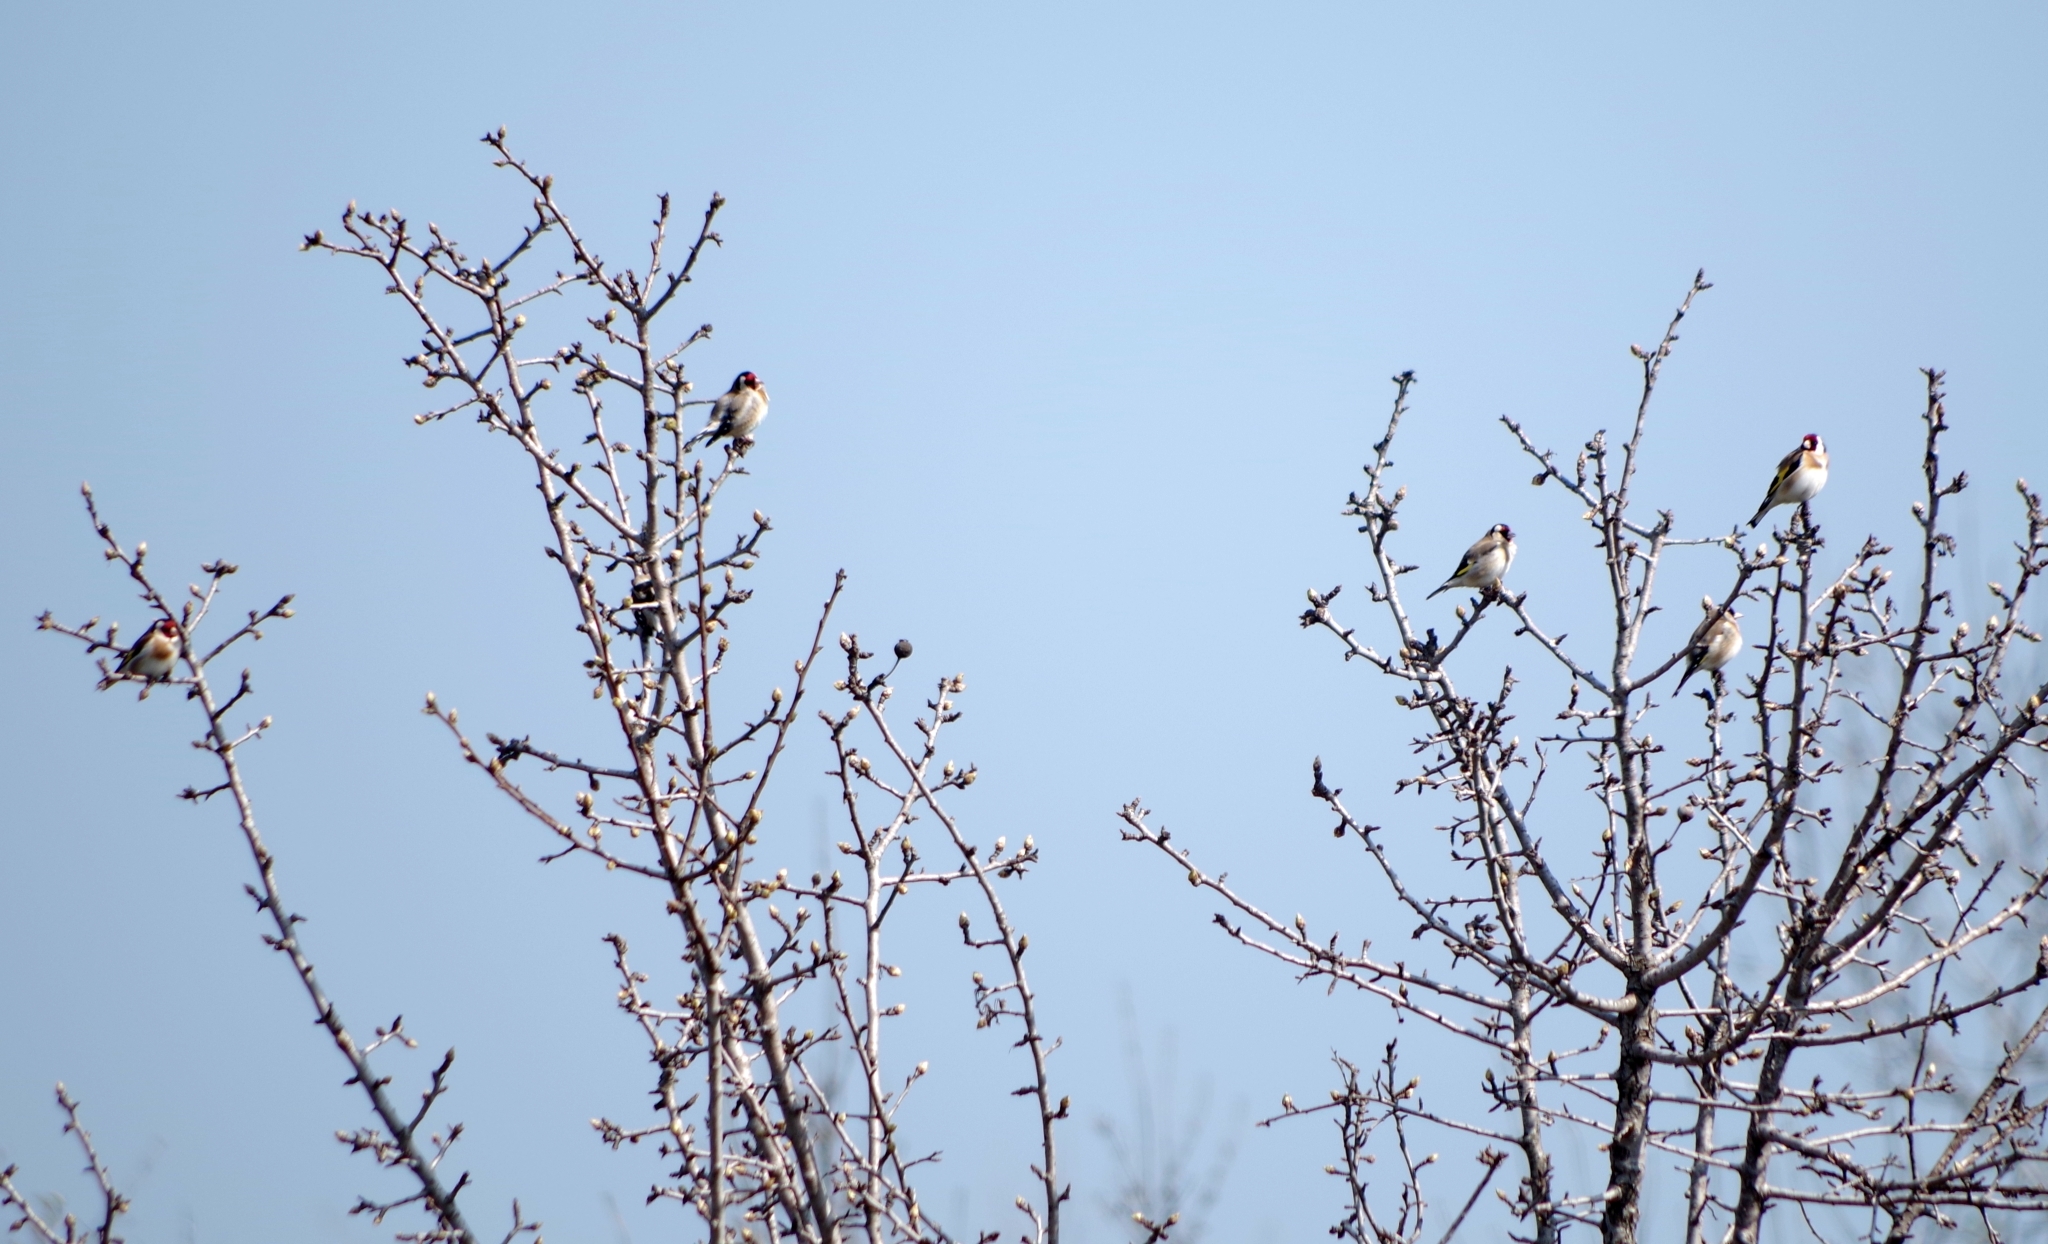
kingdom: Animalia
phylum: Chordata
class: Aves
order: Passeriformes
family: Fringillidae
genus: Carduelis
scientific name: Carduelis carduelis
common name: European goldfinch
